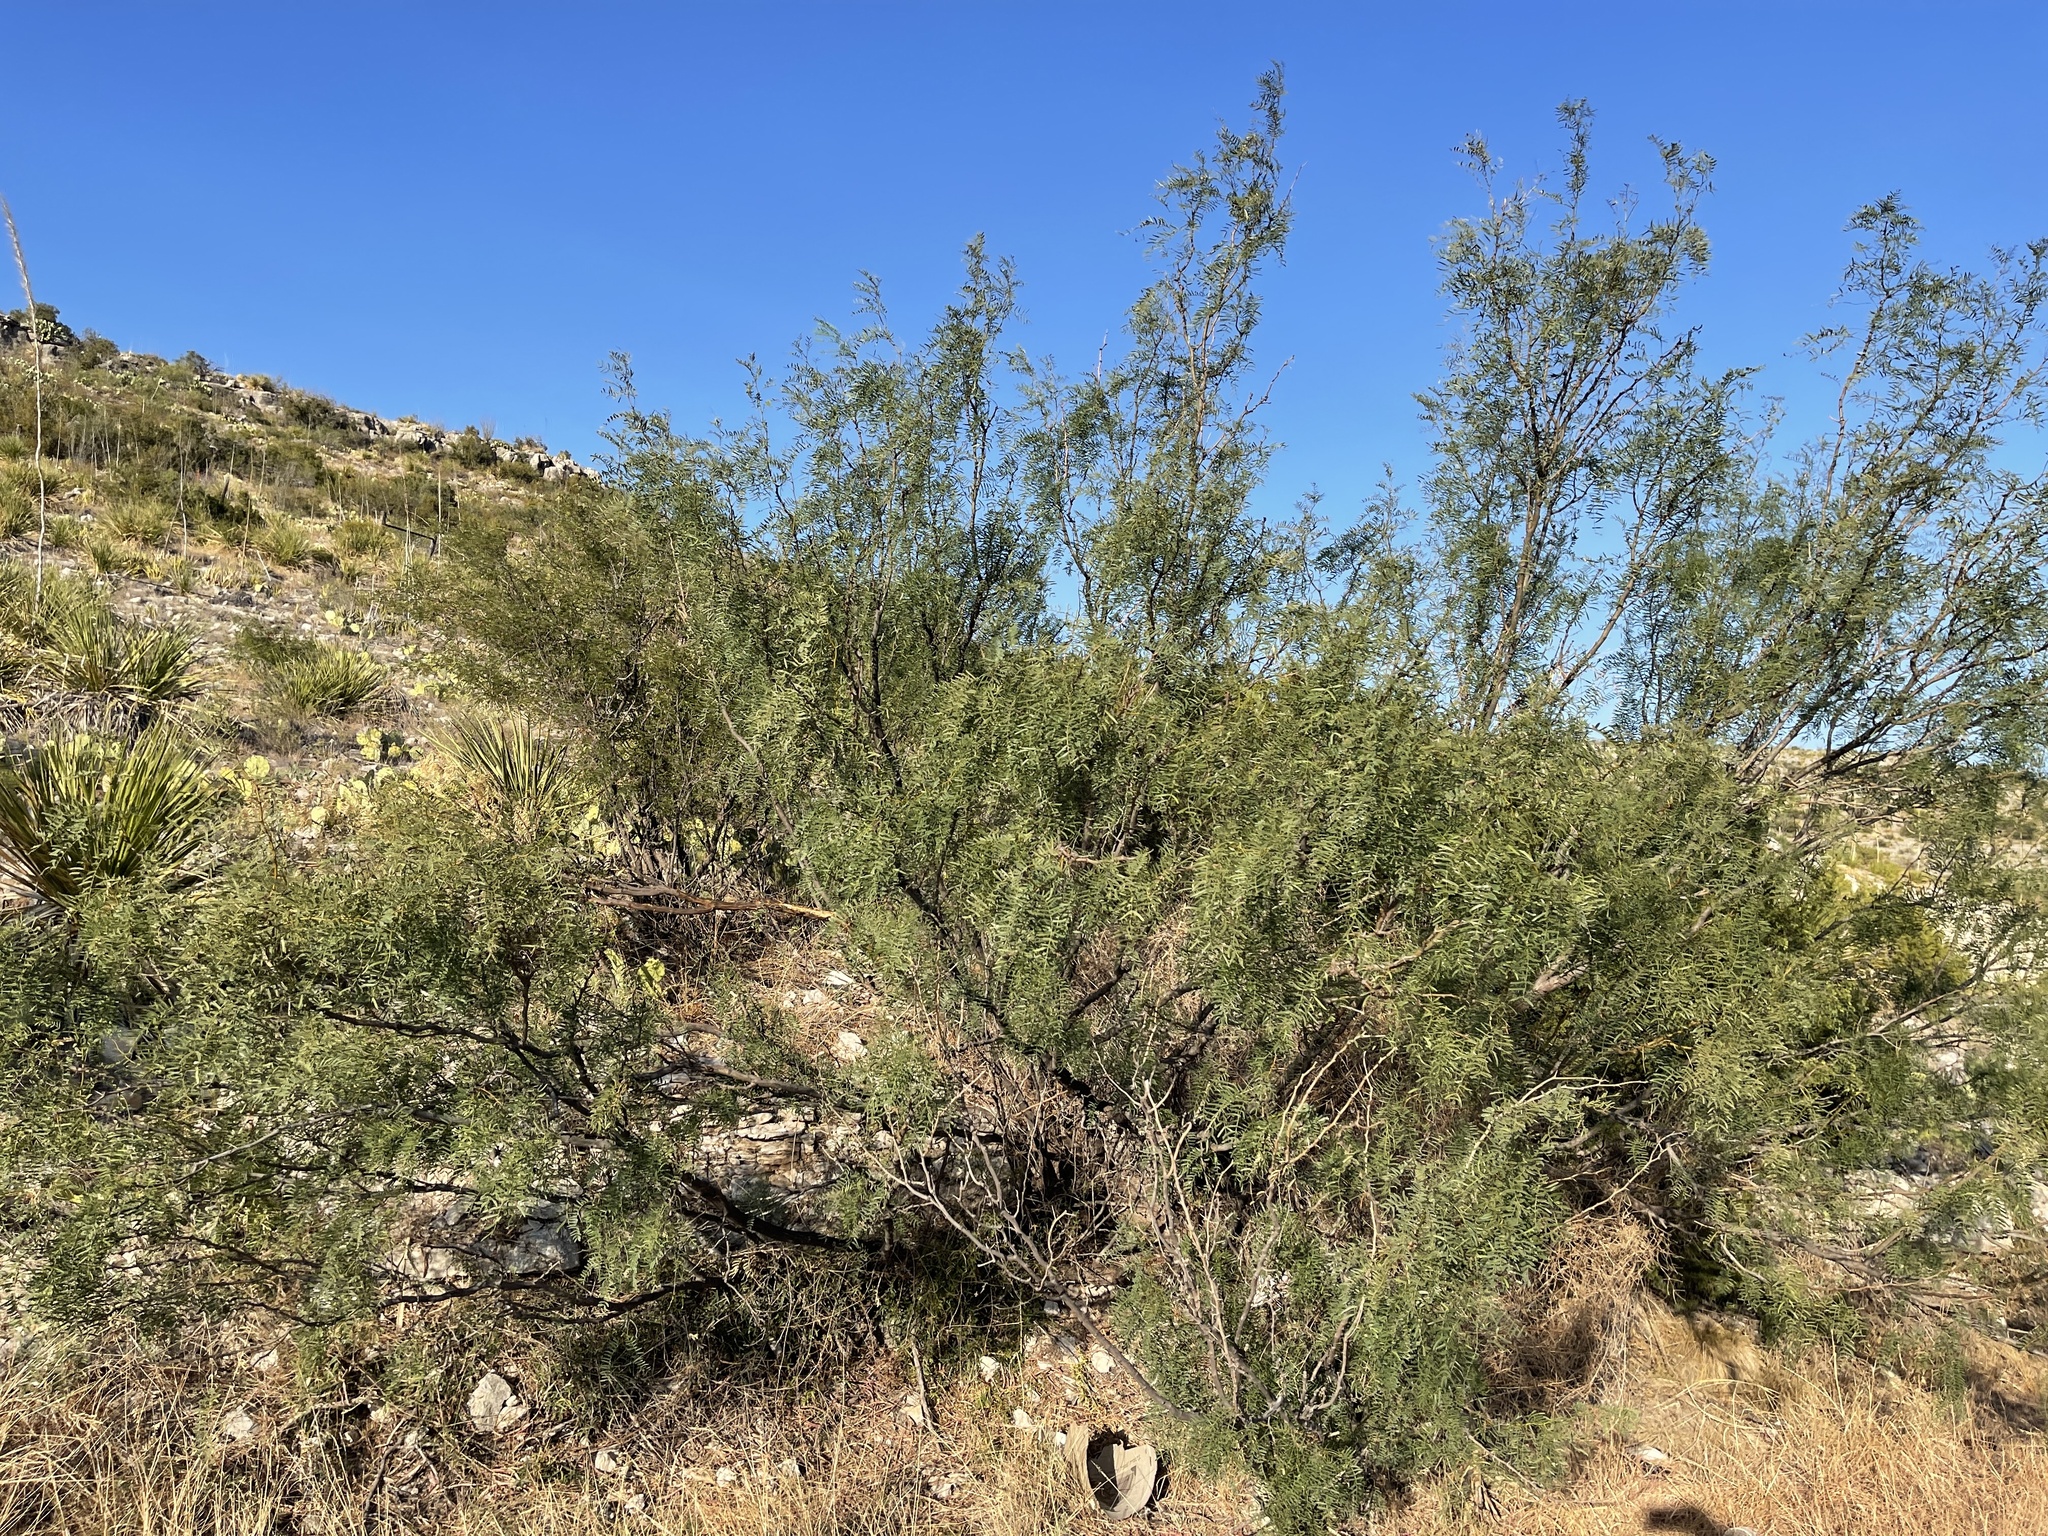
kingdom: Plantae
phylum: Tracheophyta
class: Magnoliopsida
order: Fabales
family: Fabaceae
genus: Prosopis
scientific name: Prosopis glandulosa
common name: Honey mesquite
